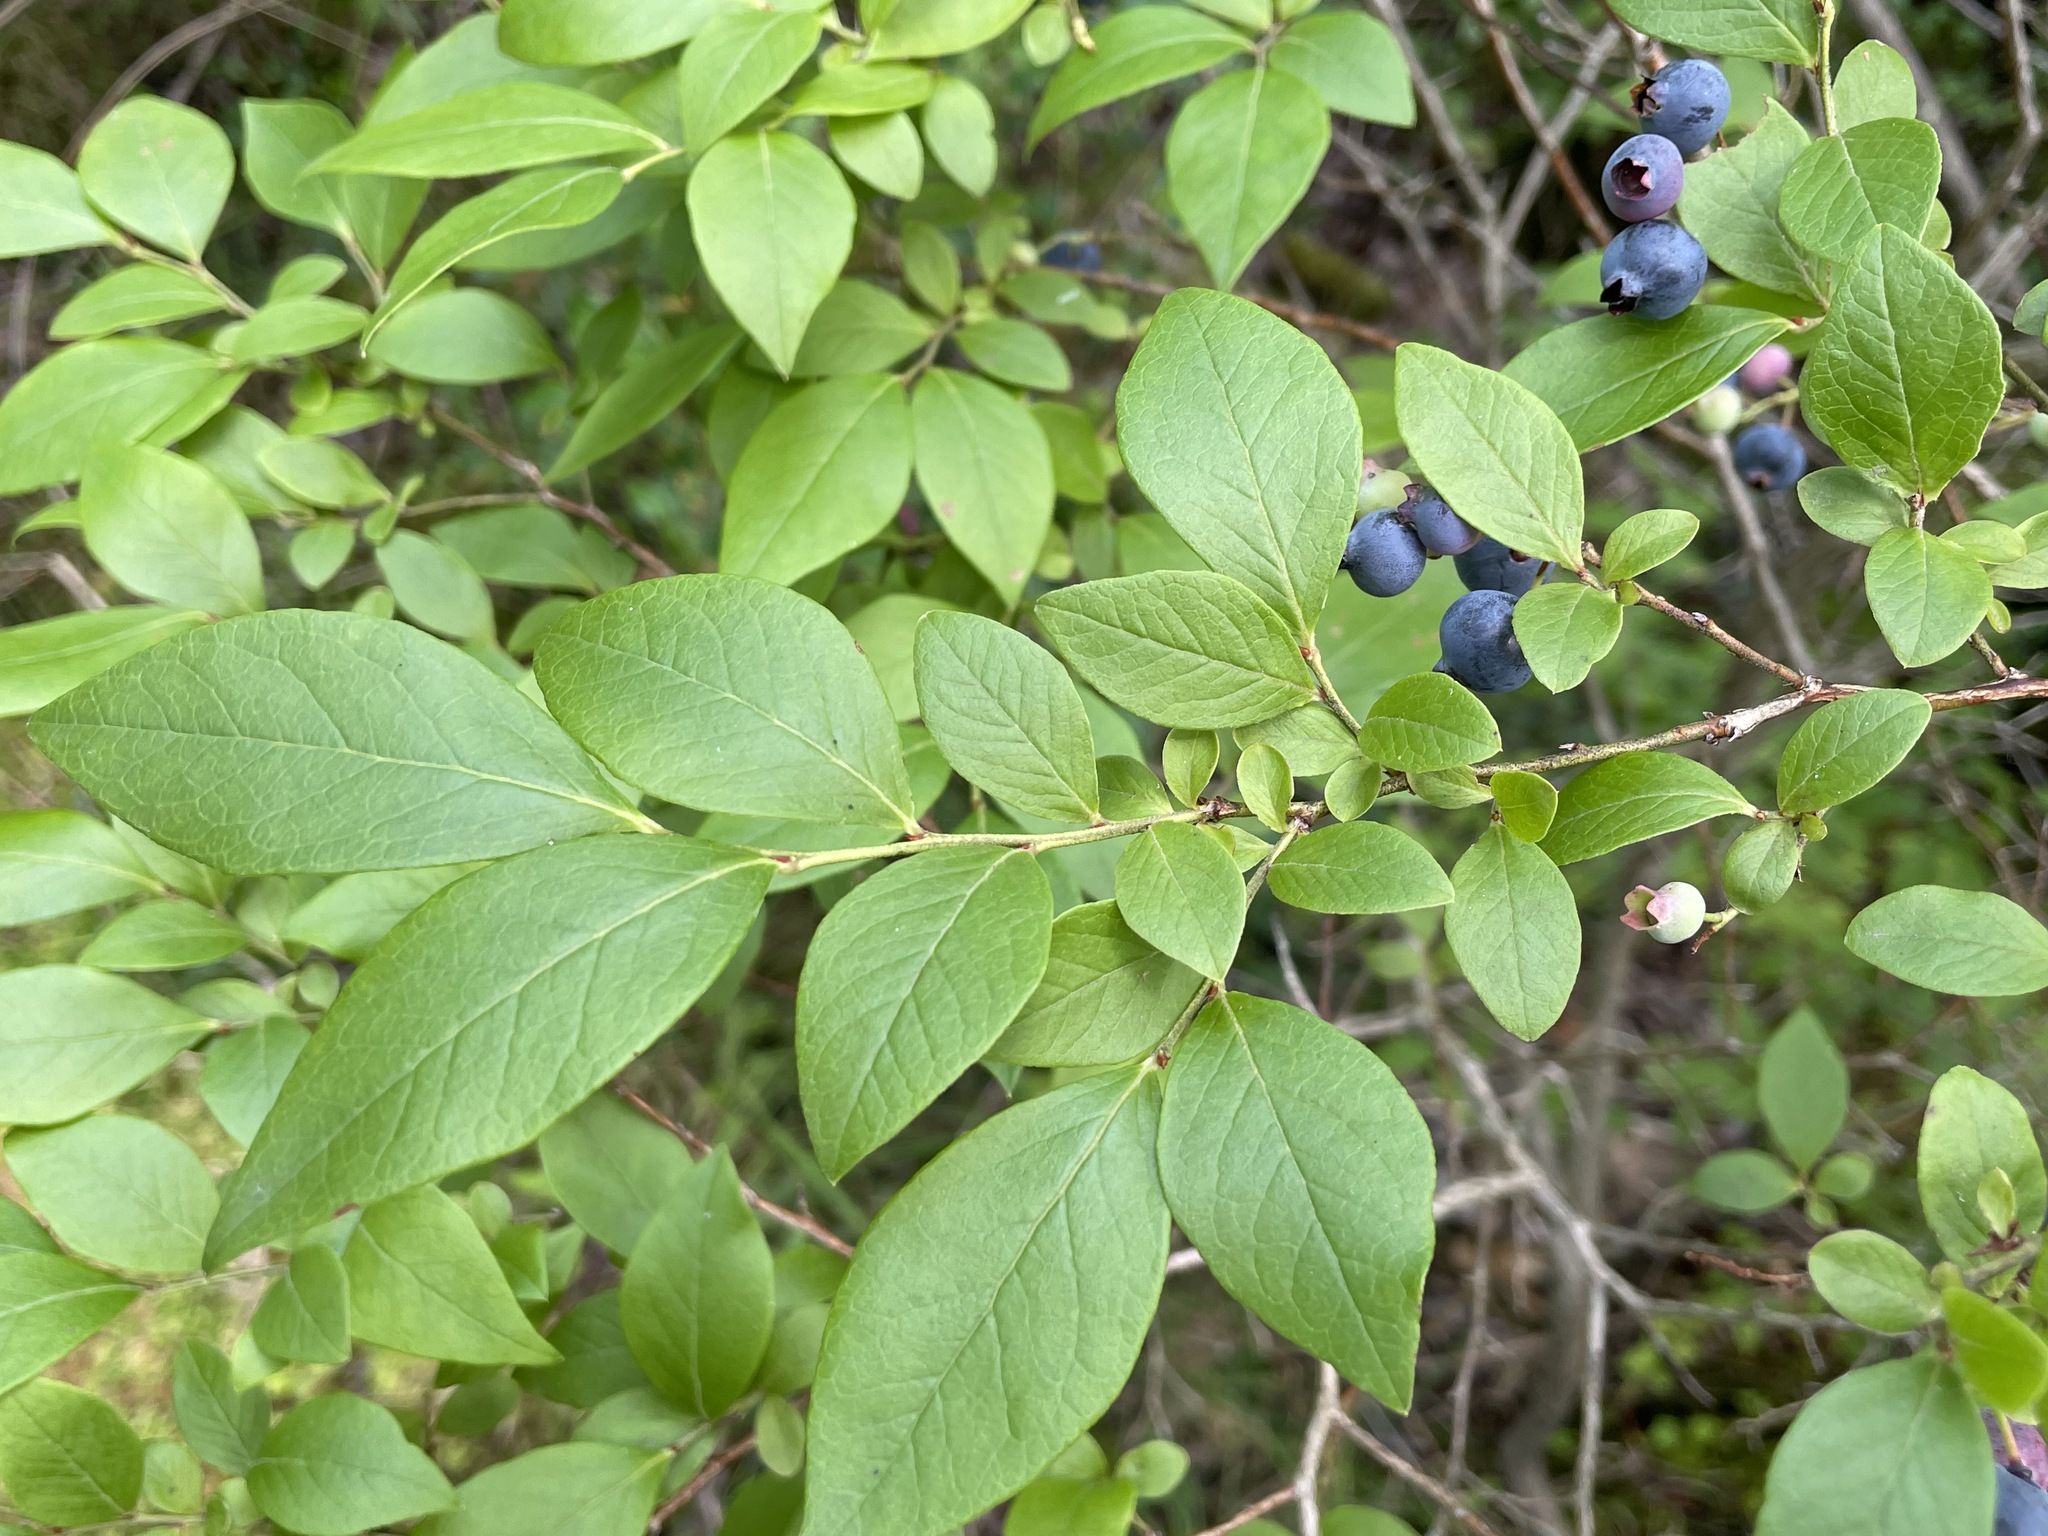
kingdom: Plantae
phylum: Tracheophyta
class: Magnoliopsida
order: Ericales
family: Ericaceae
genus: Vaccinium
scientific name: Vaccinium corymbosum
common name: Blueberry
